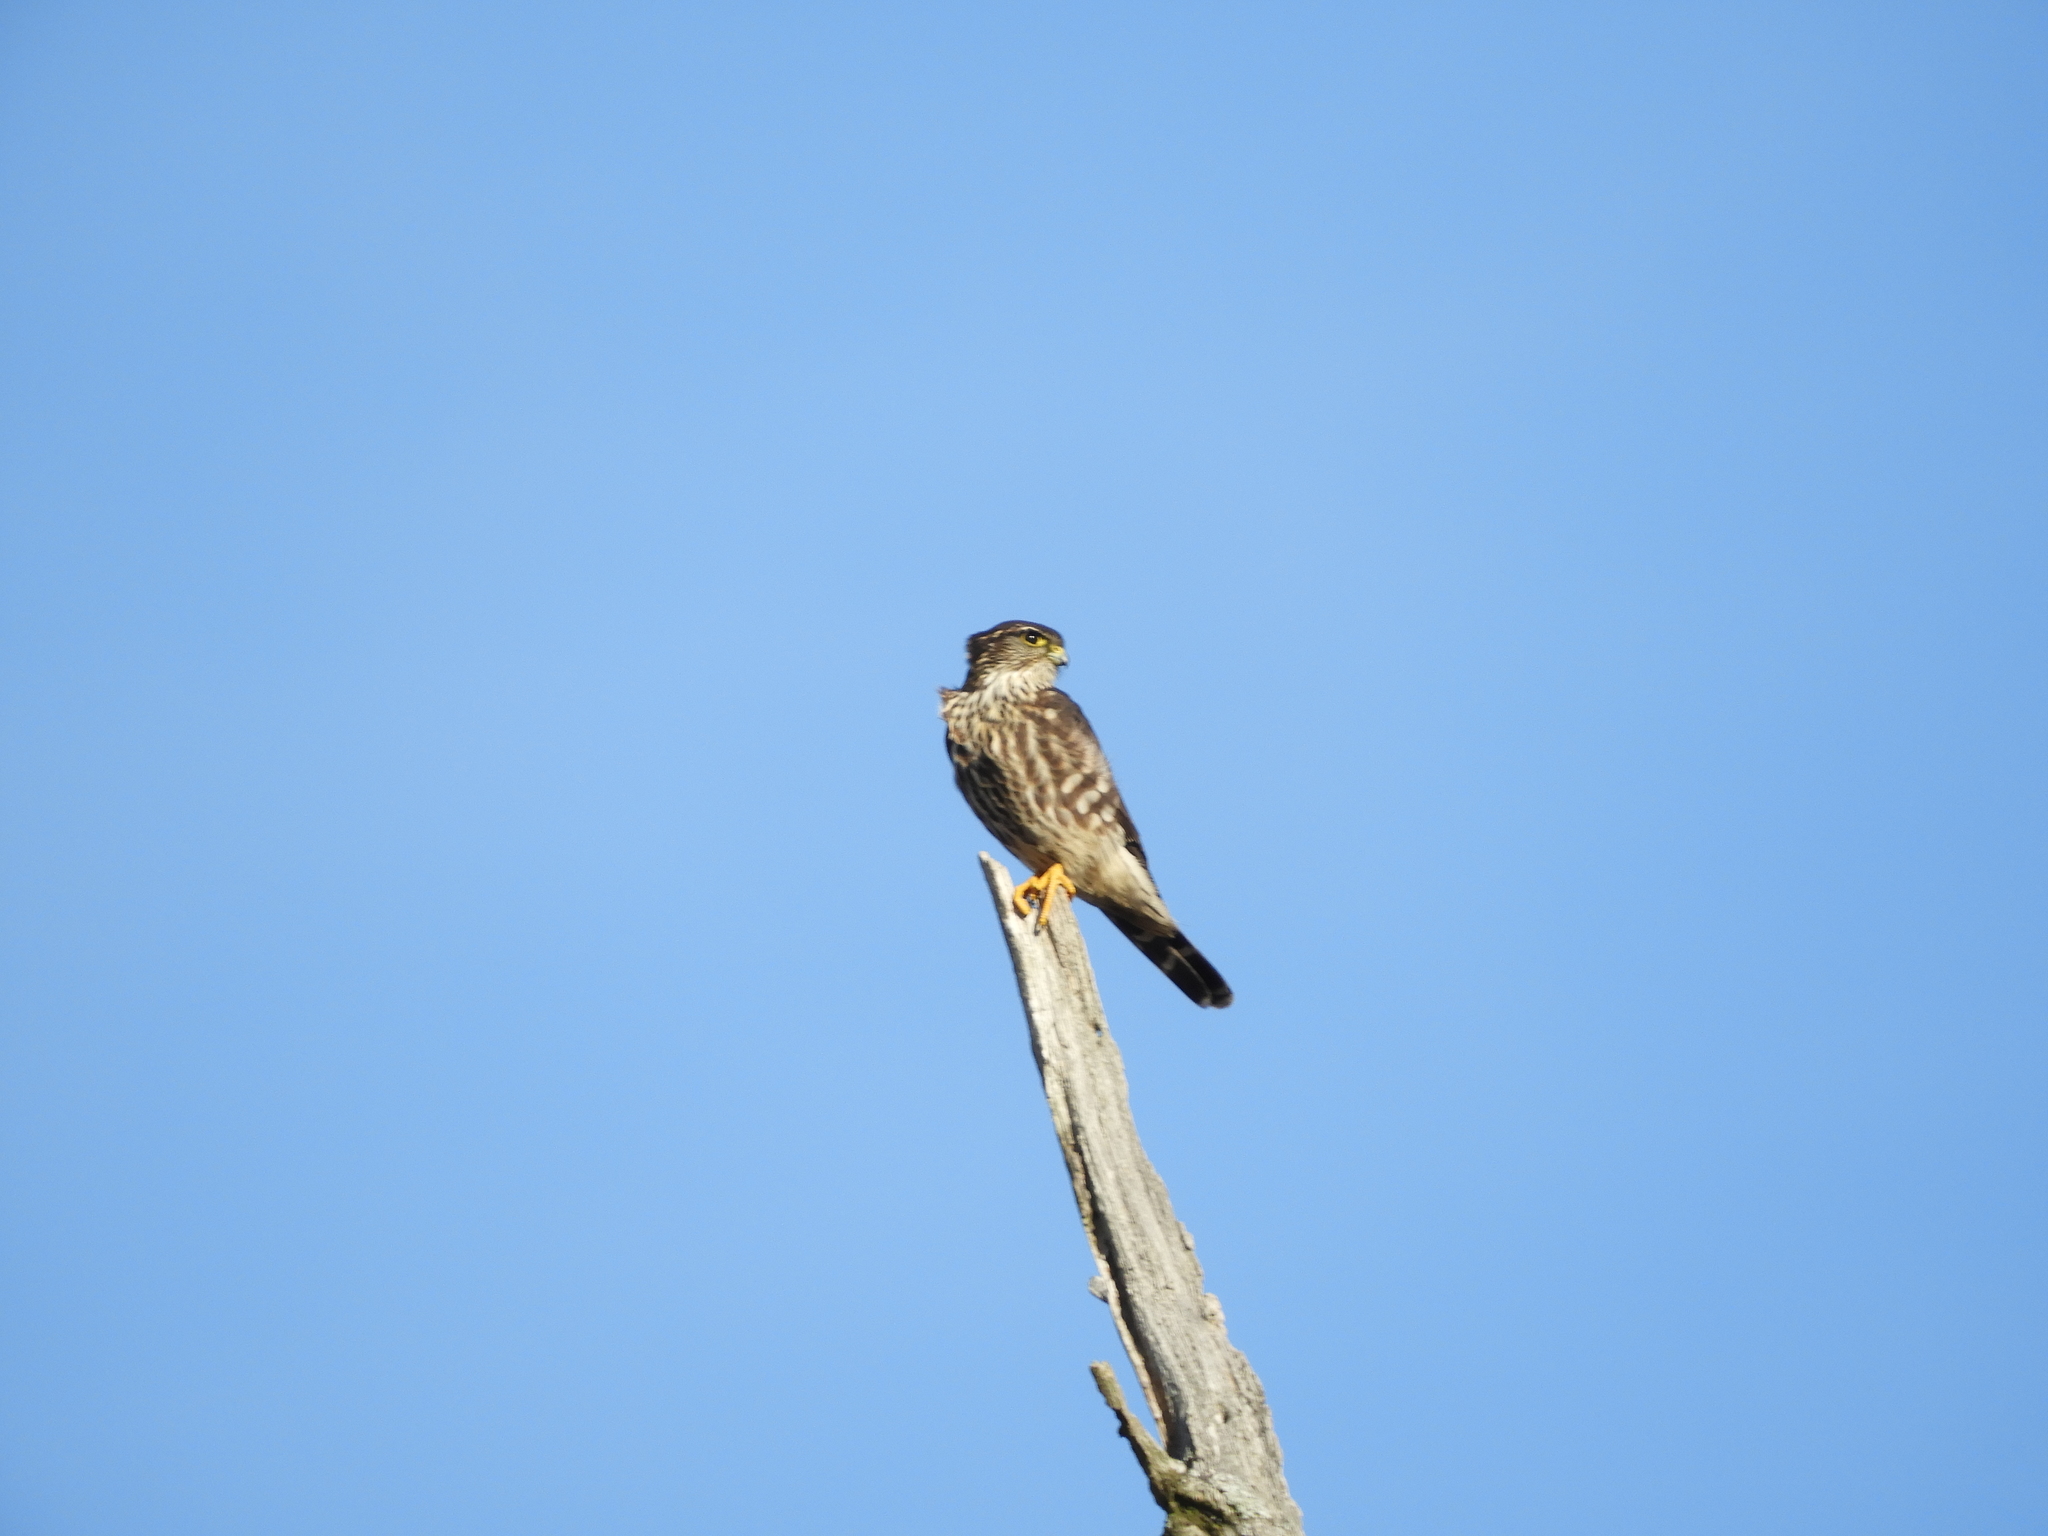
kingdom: Animalia
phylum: Chordata
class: Aves
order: Falconiformes
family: Falconidae
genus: Falco
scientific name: Falco columbarius
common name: Merlin
